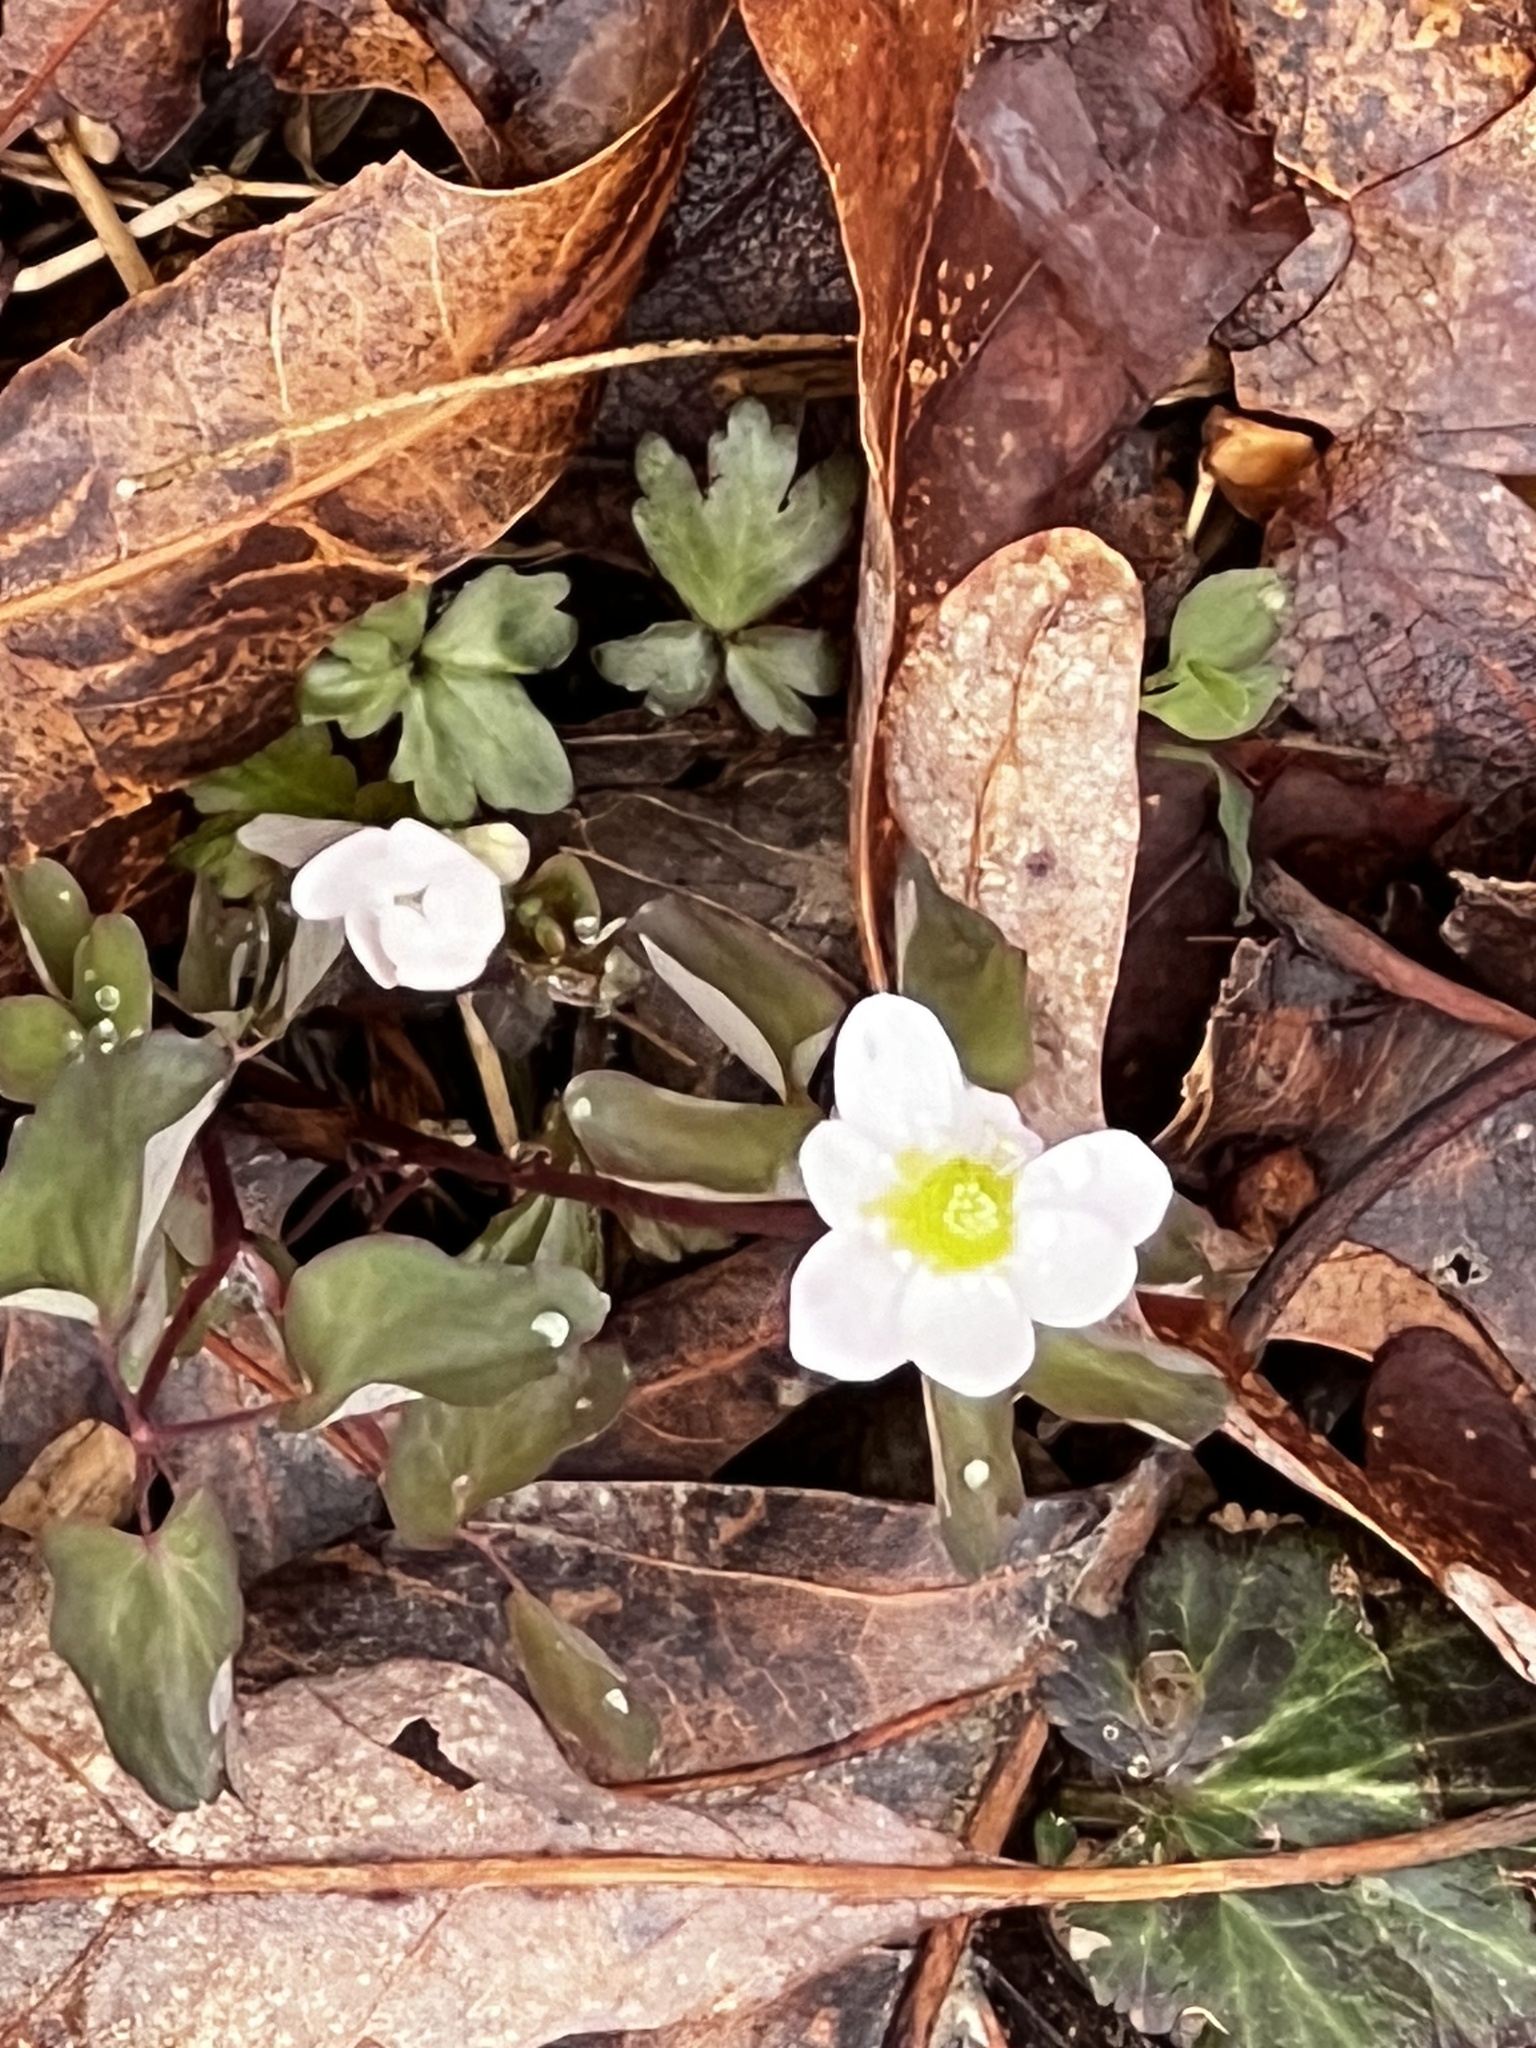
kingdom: Plantae
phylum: Tracheophyta
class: Magnoliopsida
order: Ranunculales
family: Ranunculaceae
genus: Thalictrum
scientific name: Thalictrum thalictroides
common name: Rue-anemone
